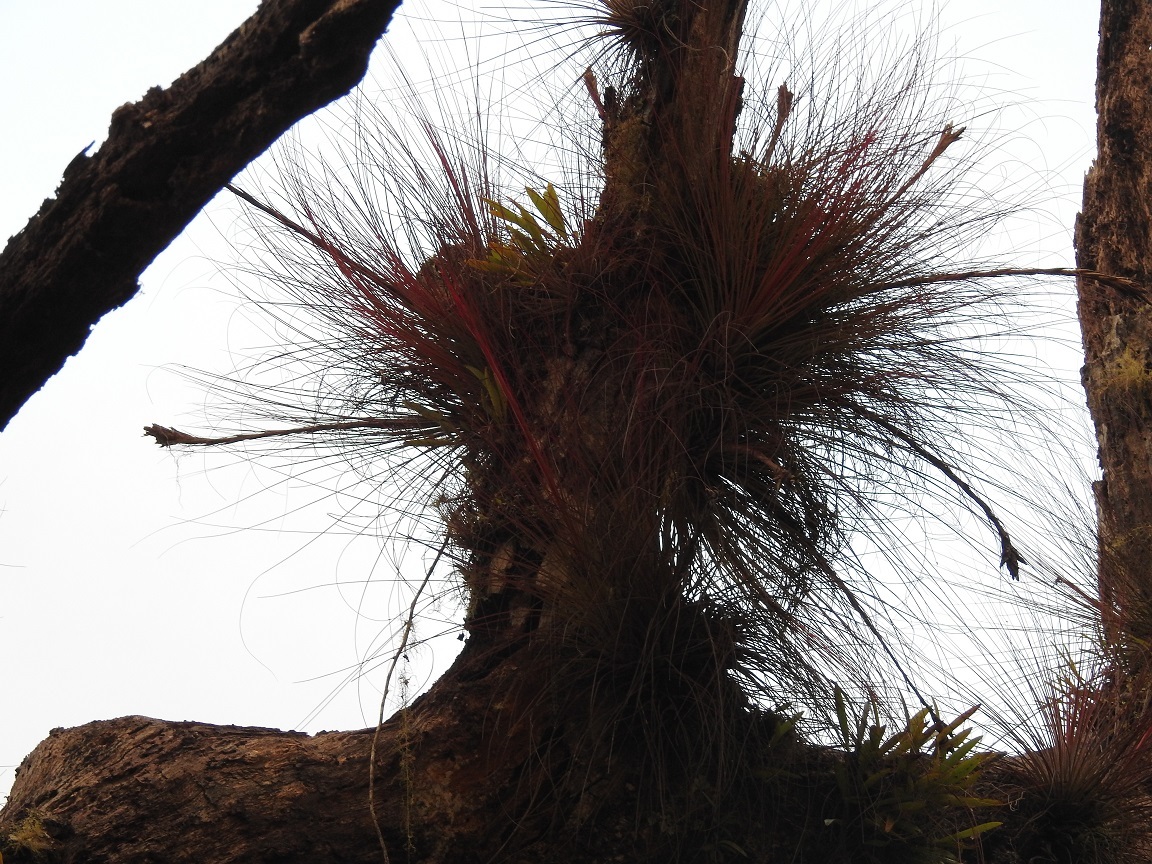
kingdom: Plantae
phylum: Tracheophyta
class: Liliopsida
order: Poales
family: Bromeliaceae
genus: Tillandsia
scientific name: Tillandsia juncea
